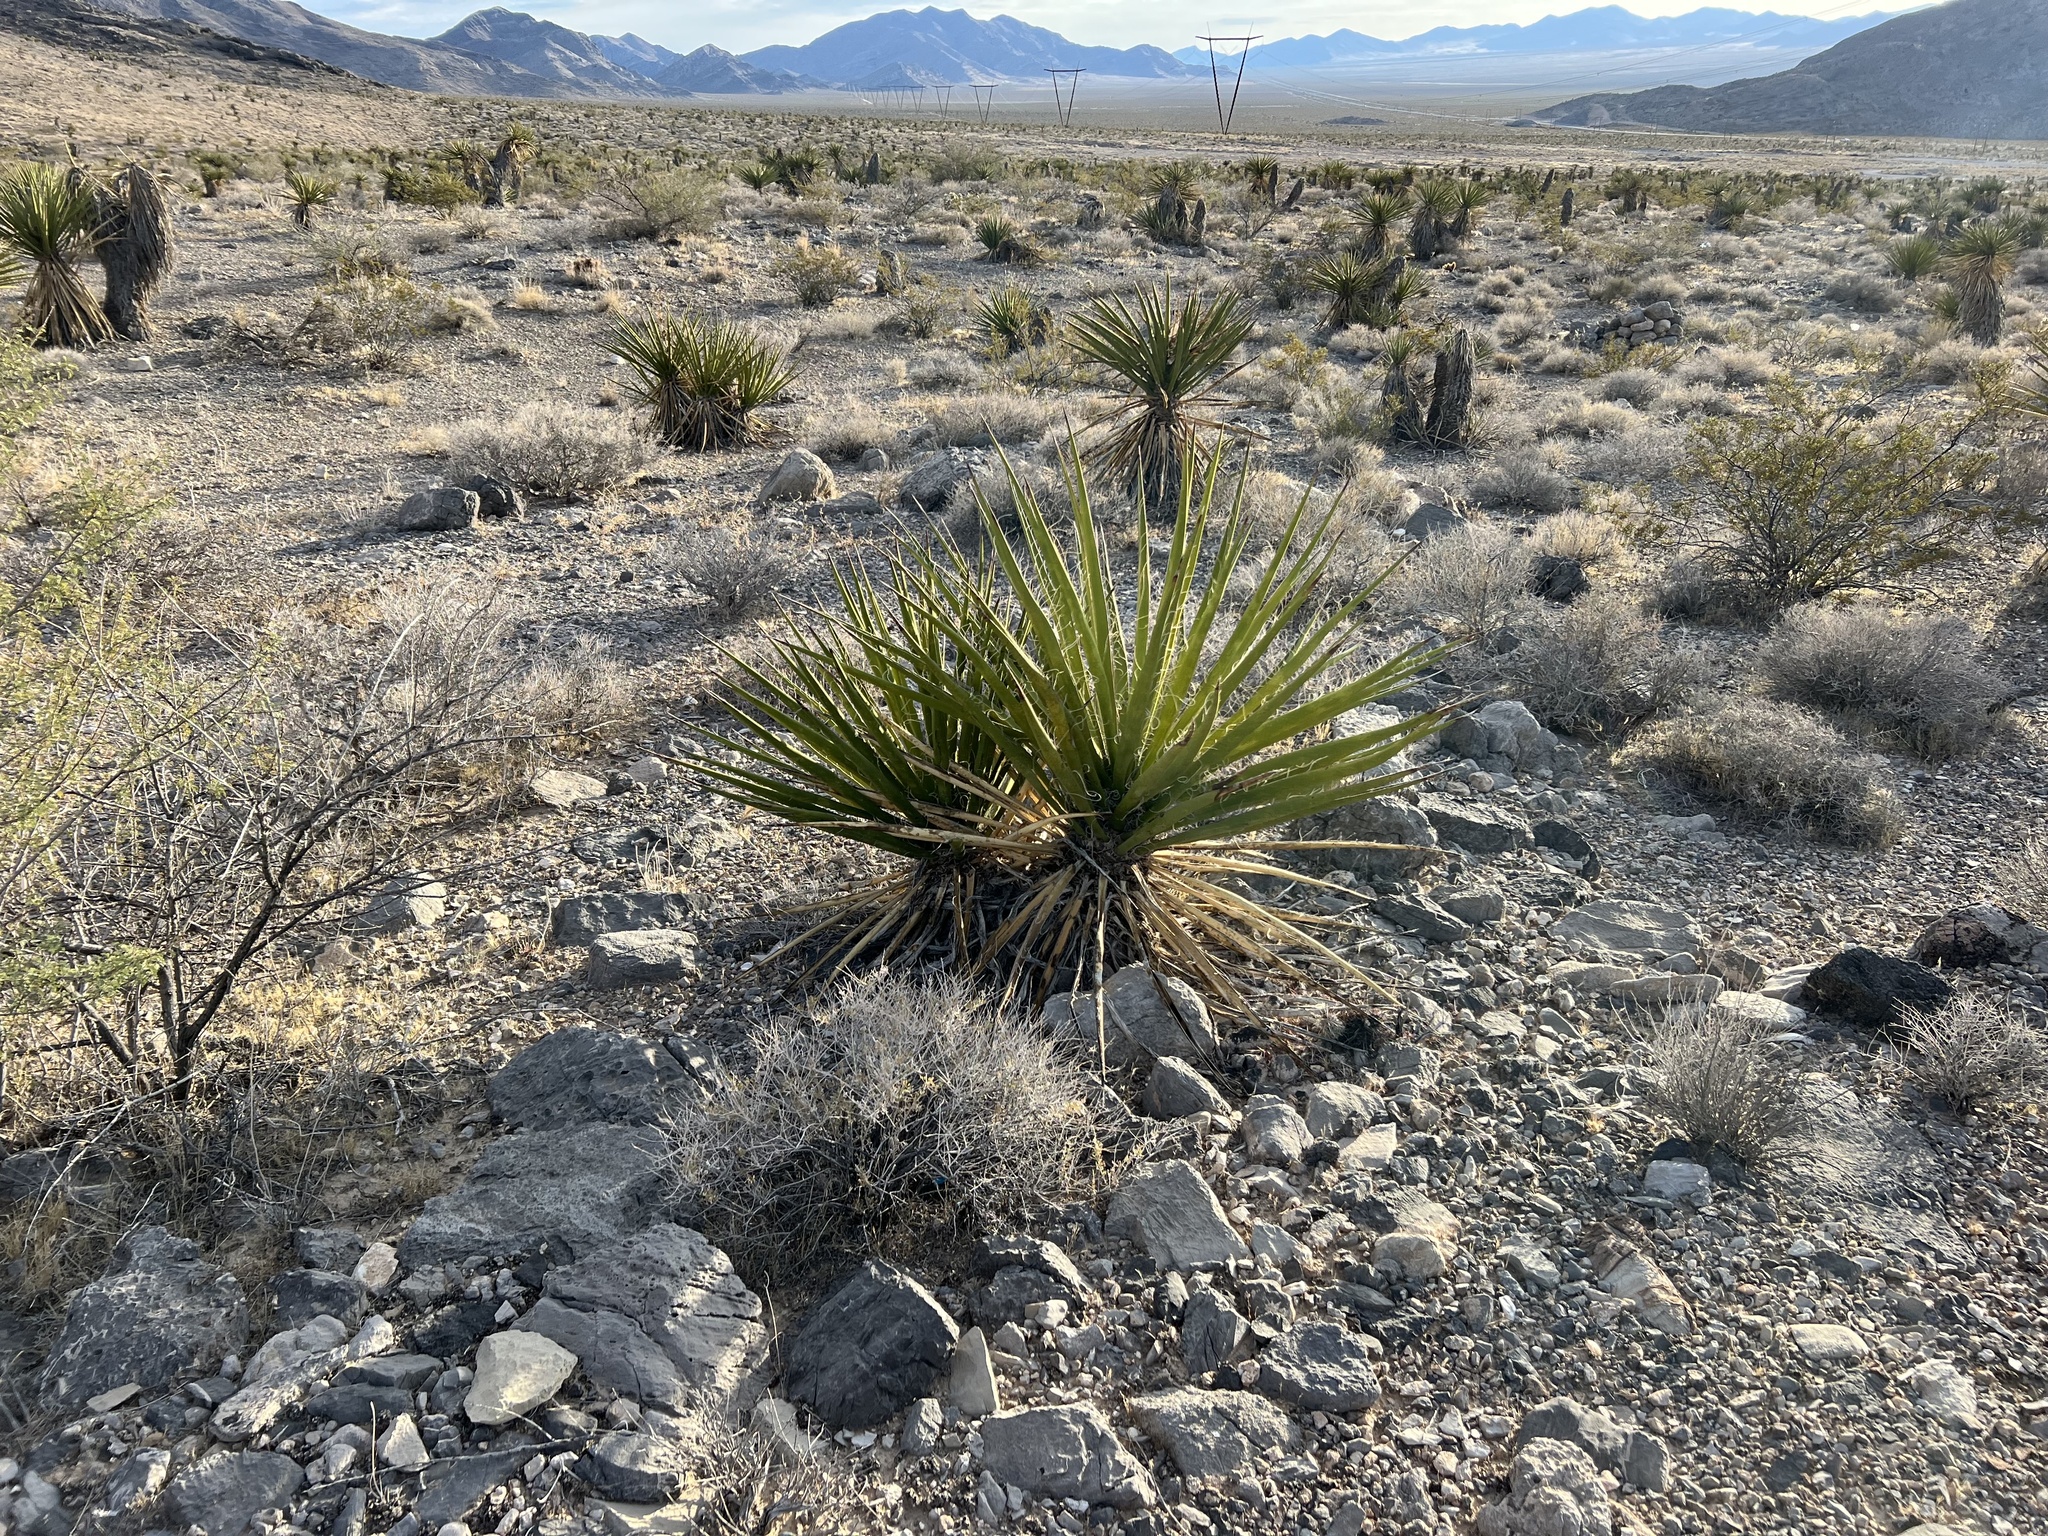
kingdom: Plantae
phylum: Tracheophyta
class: Liliopsida
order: Asparagales
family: Asparagaceae
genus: Yucca
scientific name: Yucca schidigera
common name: Mojave yucca
